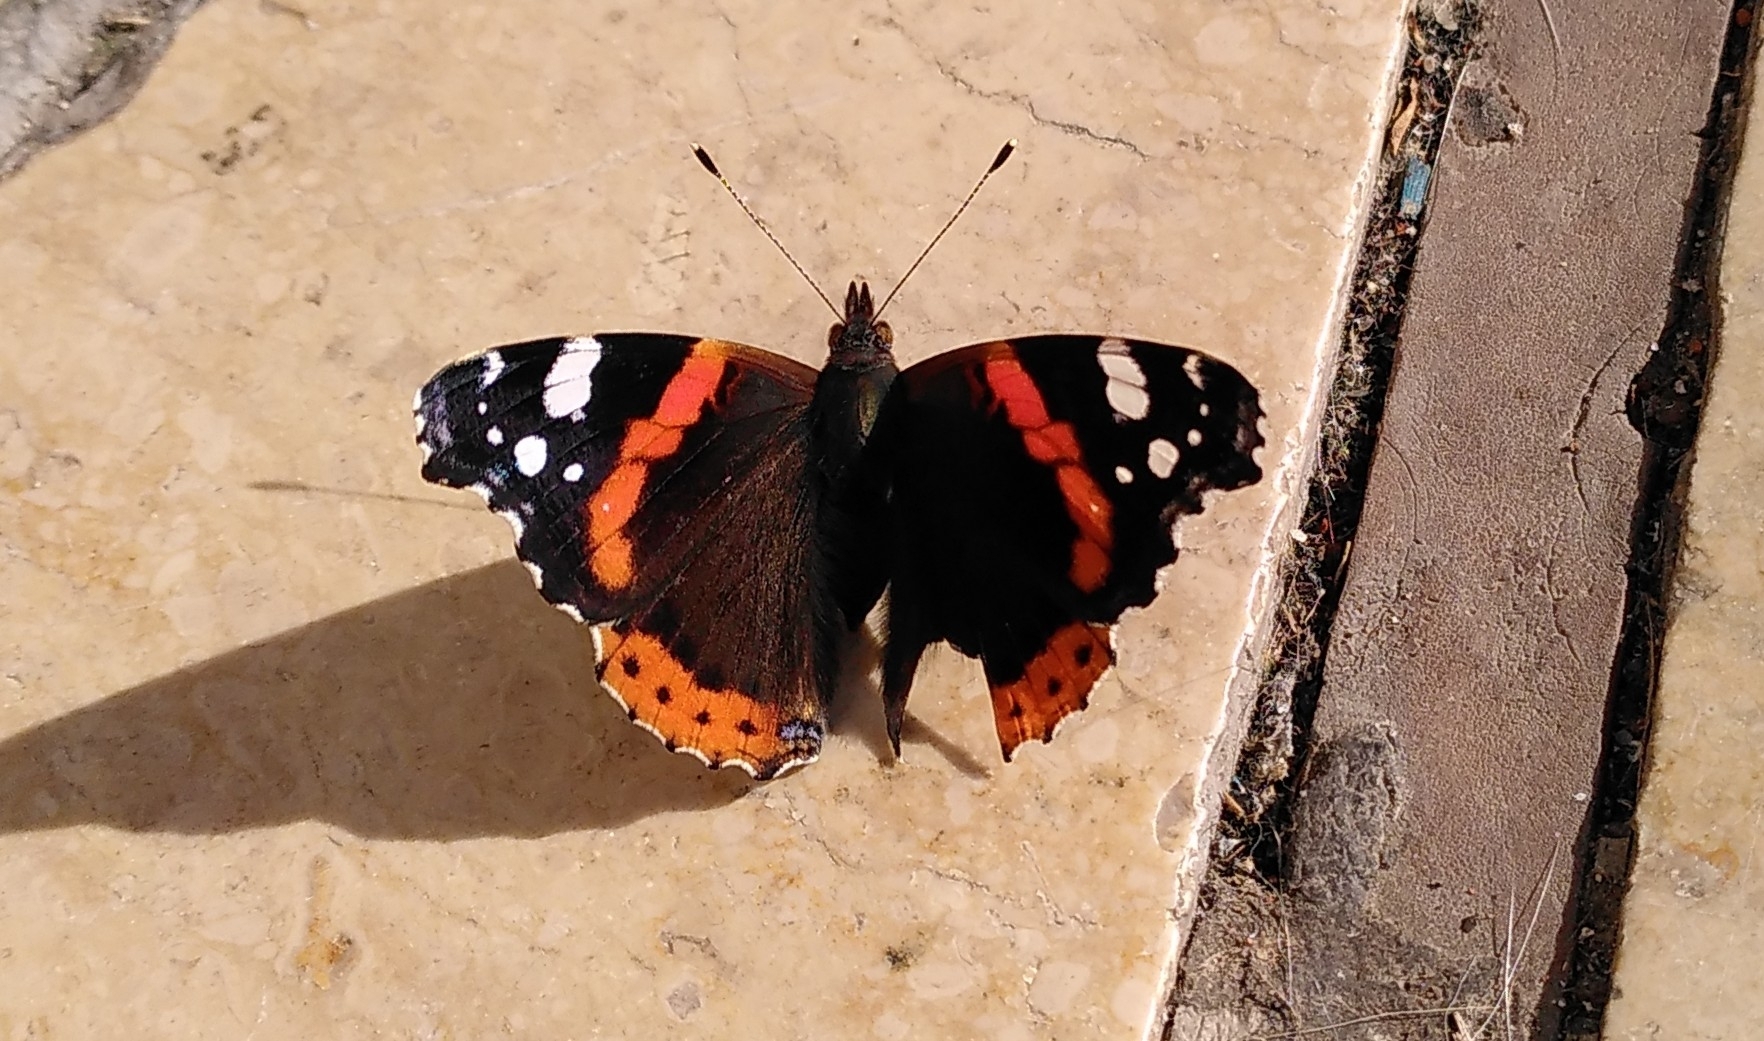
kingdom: Animalia
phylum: Arthropoda
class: Insecta
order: Lepidoptera
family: Nymphalidae
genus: Vanessa
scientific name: Vanessa atalanta
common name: Red admiral
